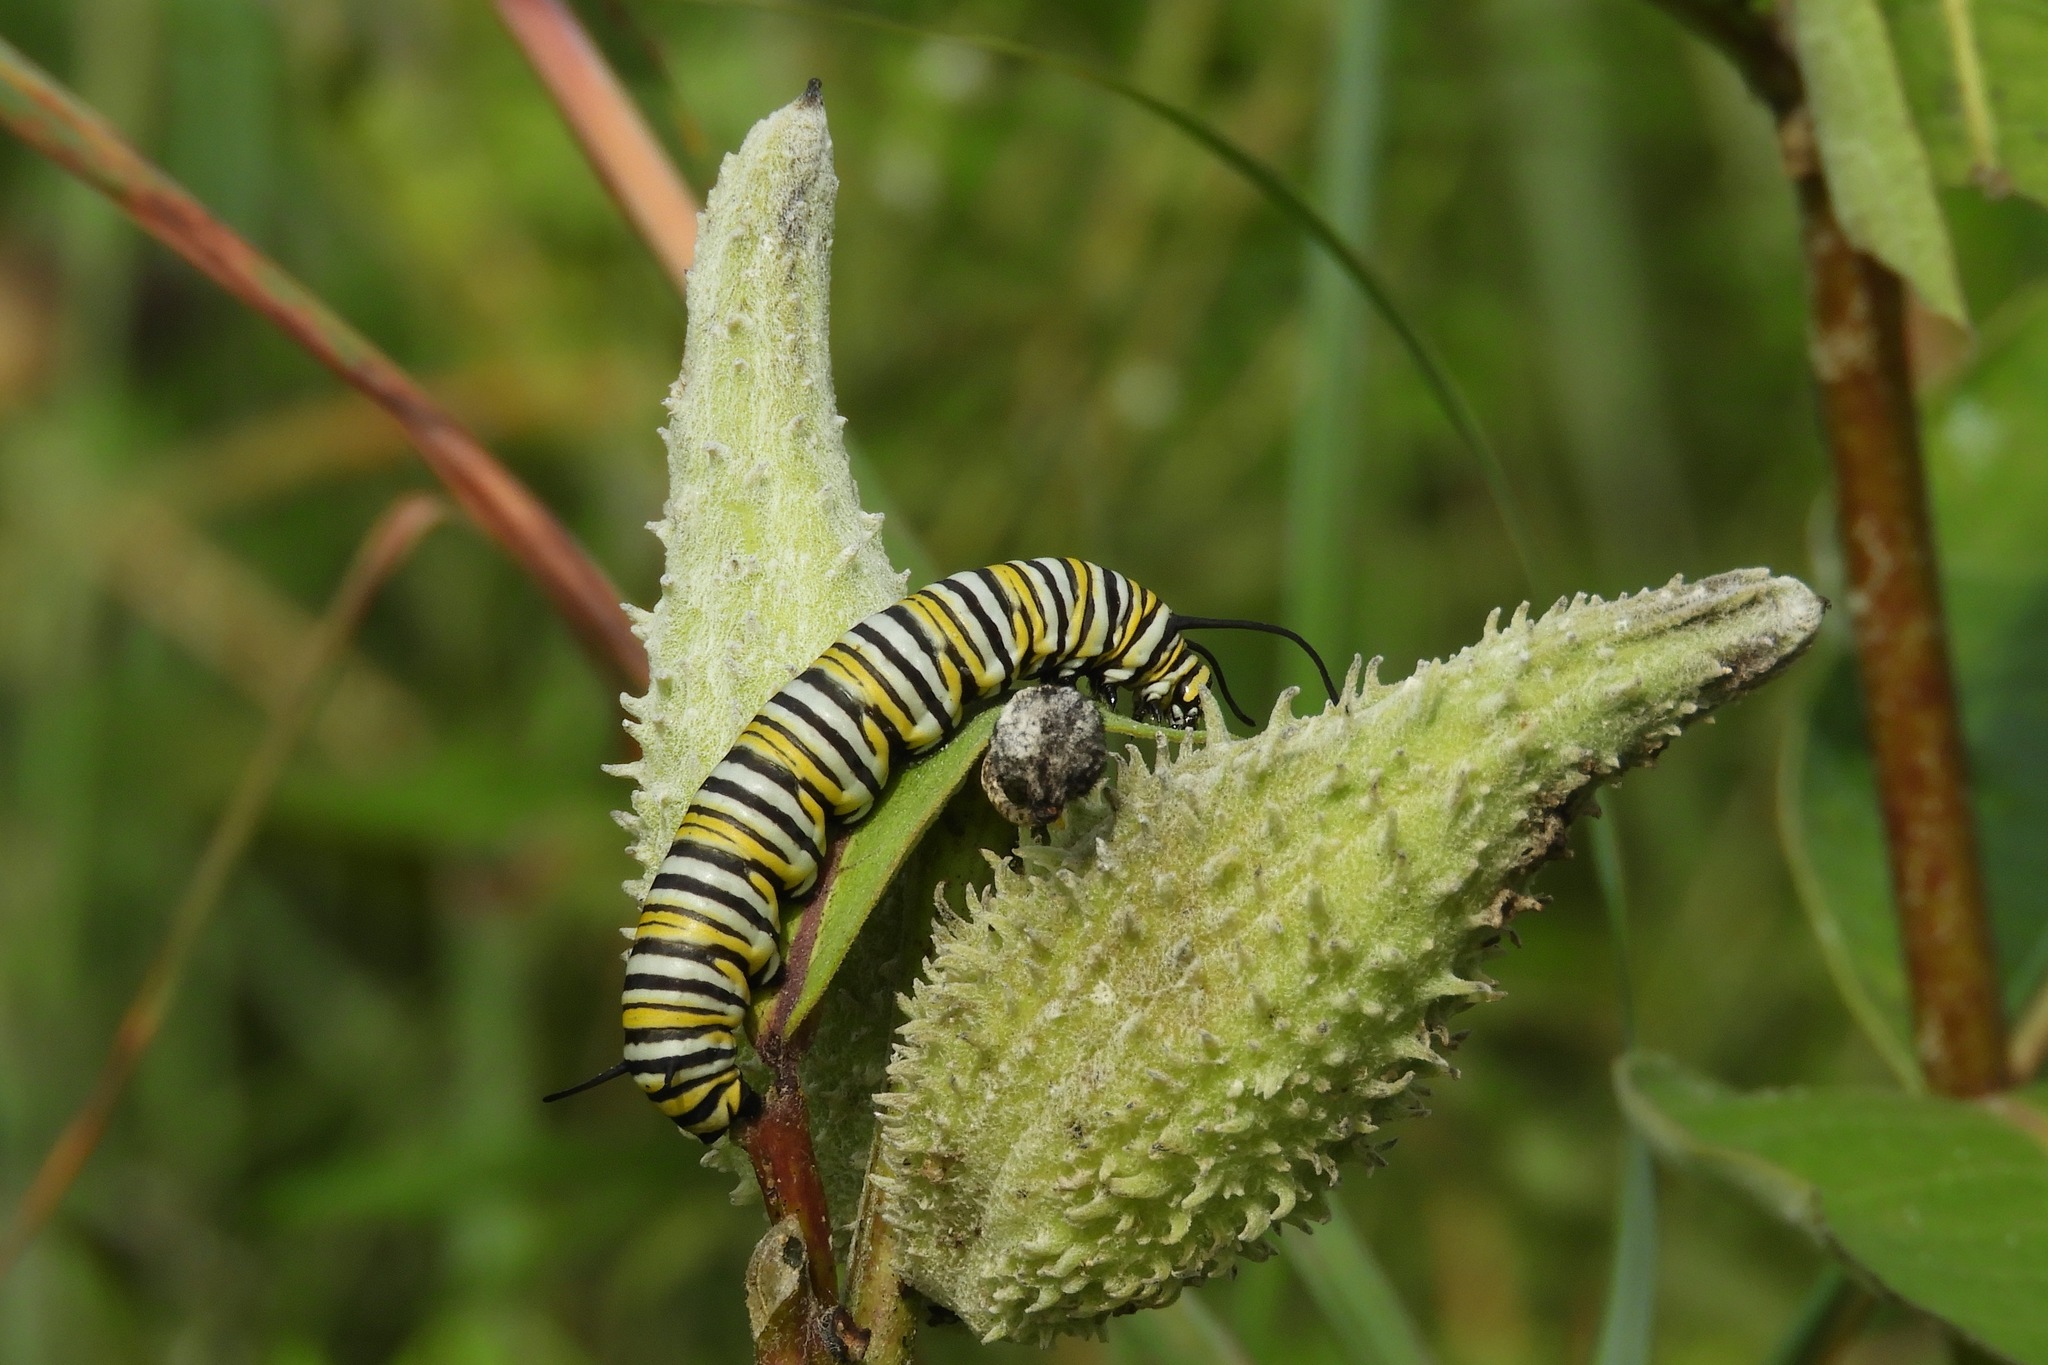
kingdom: Animalia
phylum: Arthropoda
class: Insecta
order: Lepidoptera
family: Nymphalidae
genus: Danaus
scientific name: Danaus plexippus
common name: Monarch
